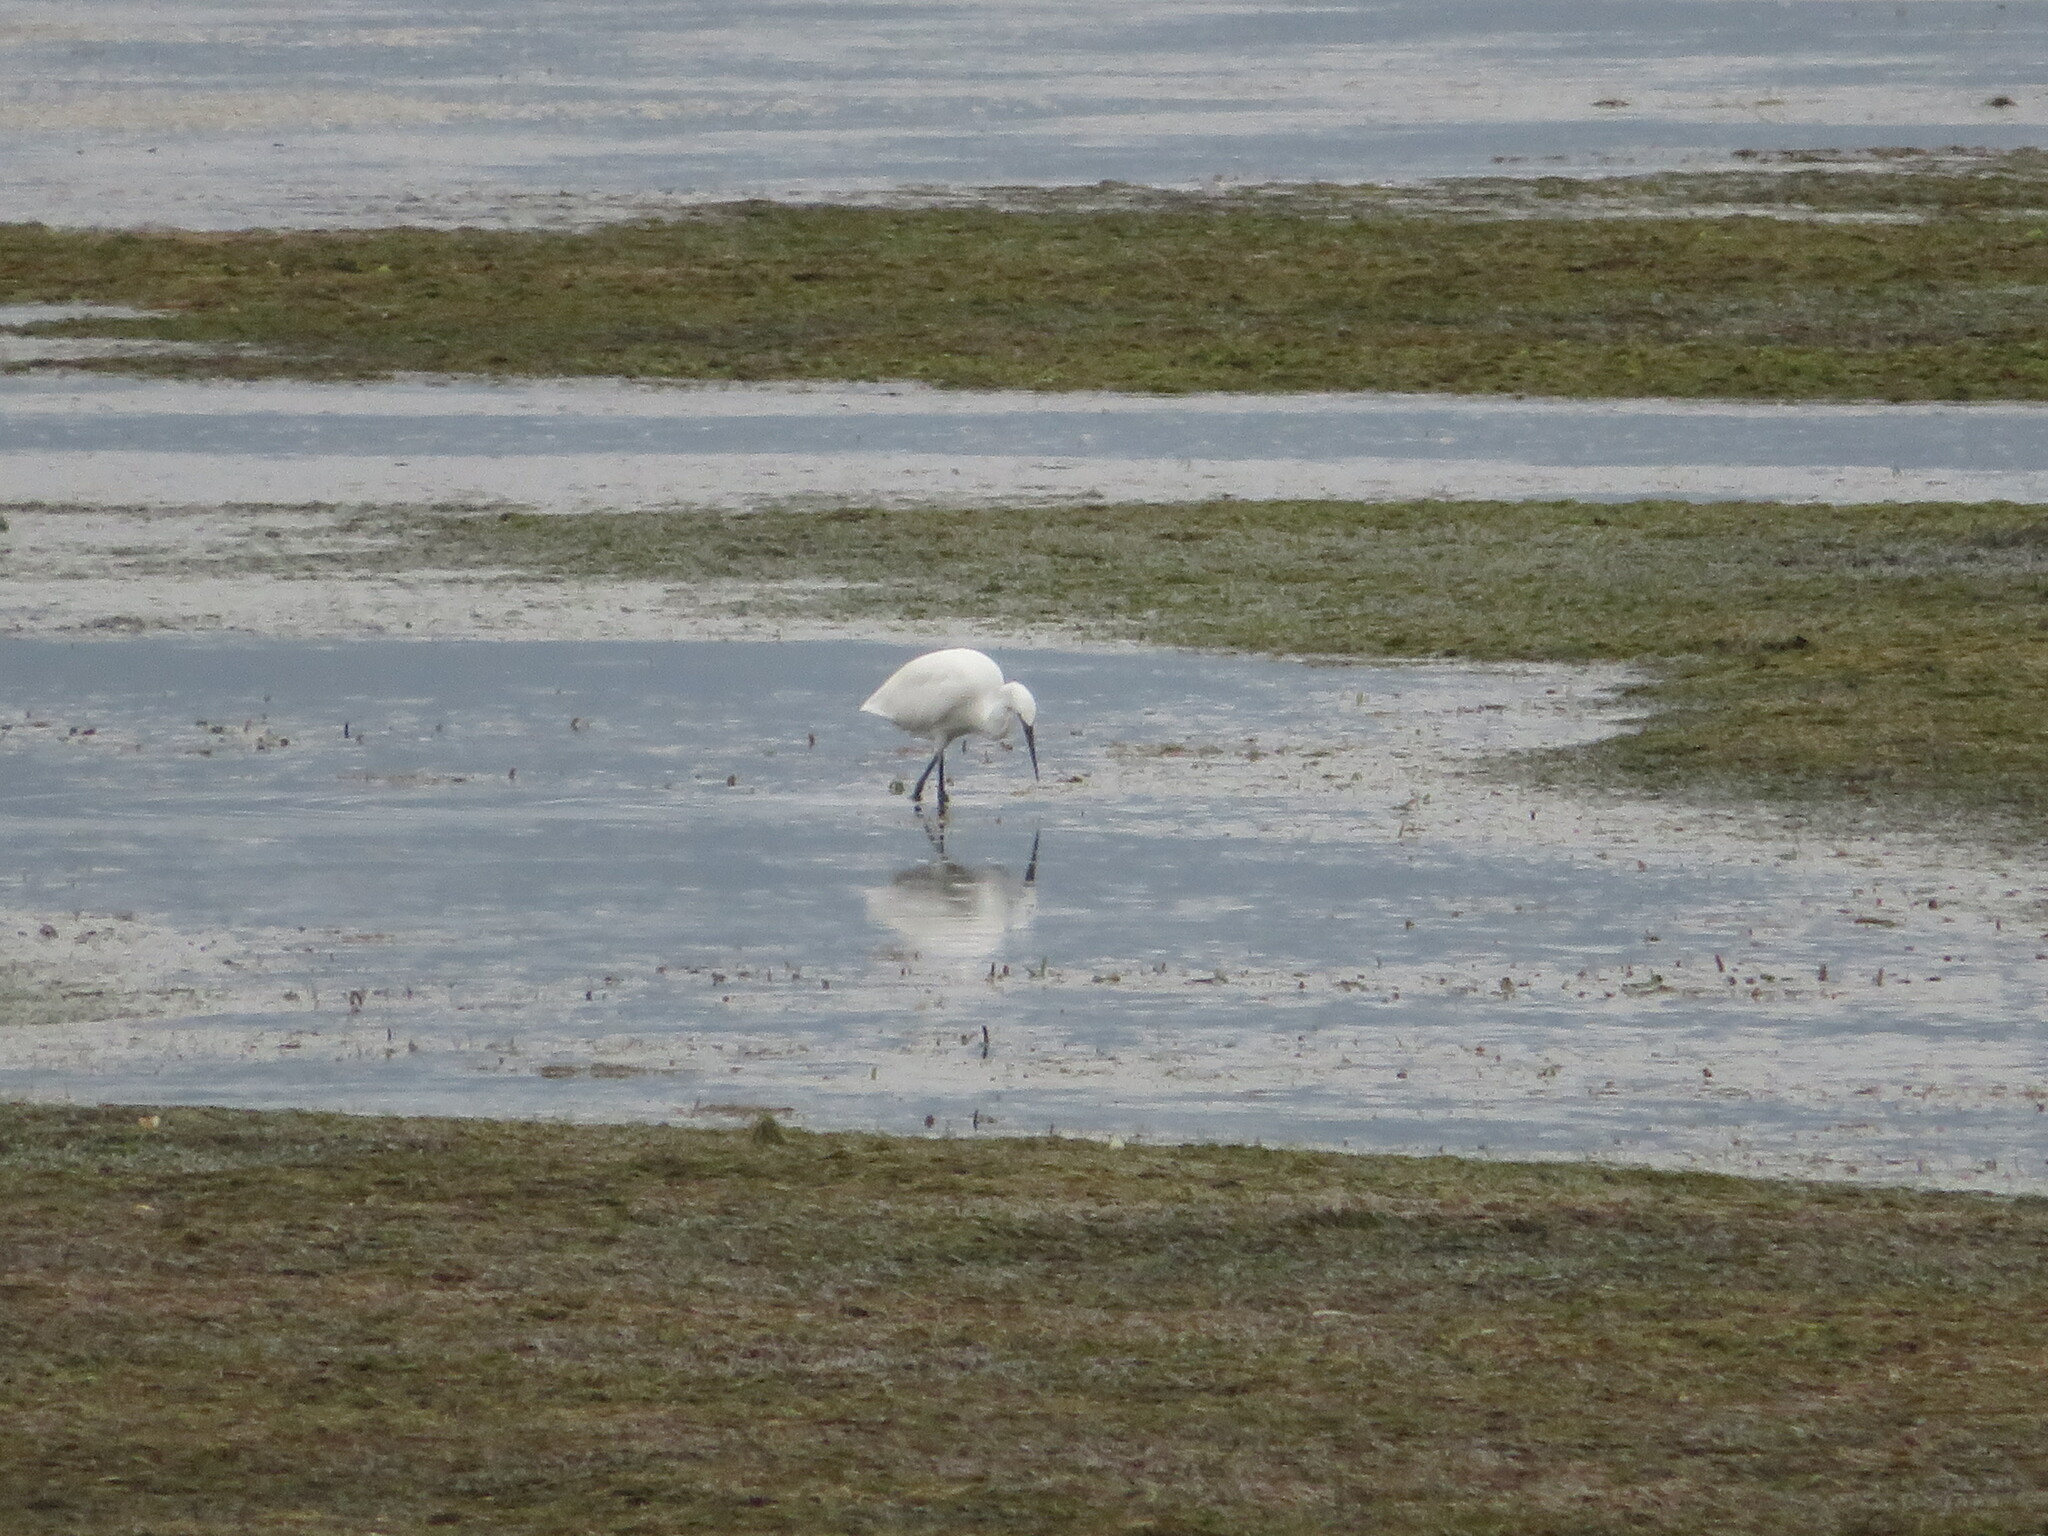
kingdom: Animalia
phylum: Chordata
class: Aves
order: Pelecaniformes
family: Ardeidae
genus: Egretta
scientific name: Egretta garzetta
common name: Little egret
